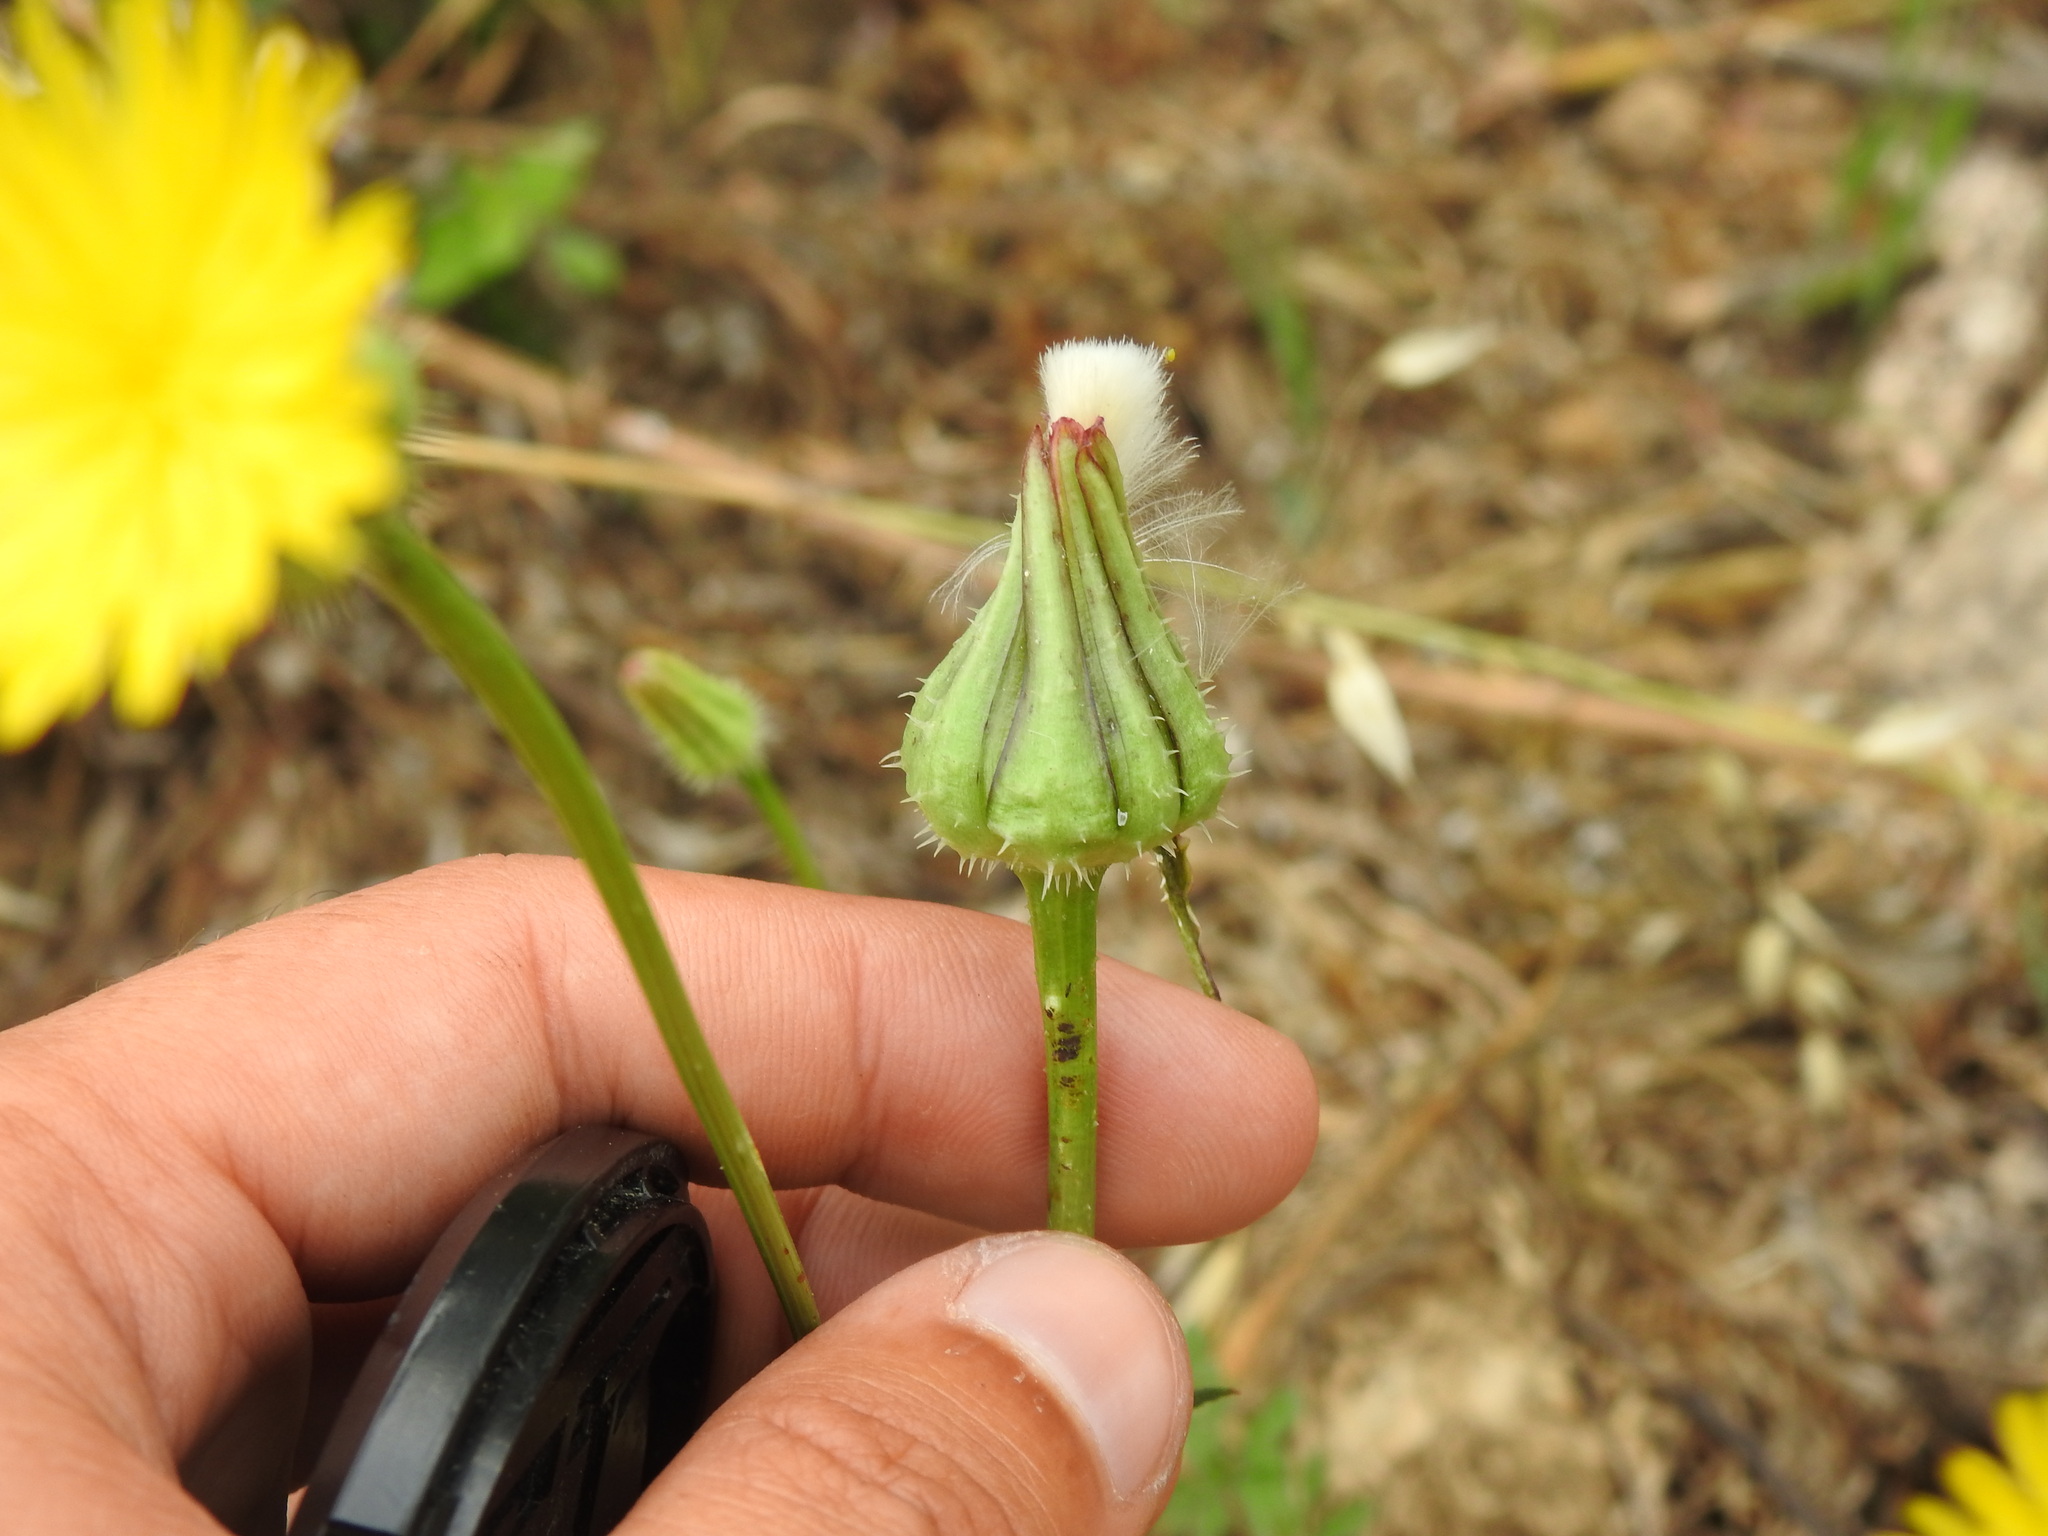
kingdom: Plantae
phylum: Tracheophyta
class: Magnoliopsida
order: Asterales
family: Asteraceae
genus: Urospermum
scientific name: Urospermum picroides
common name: False hawkbit
